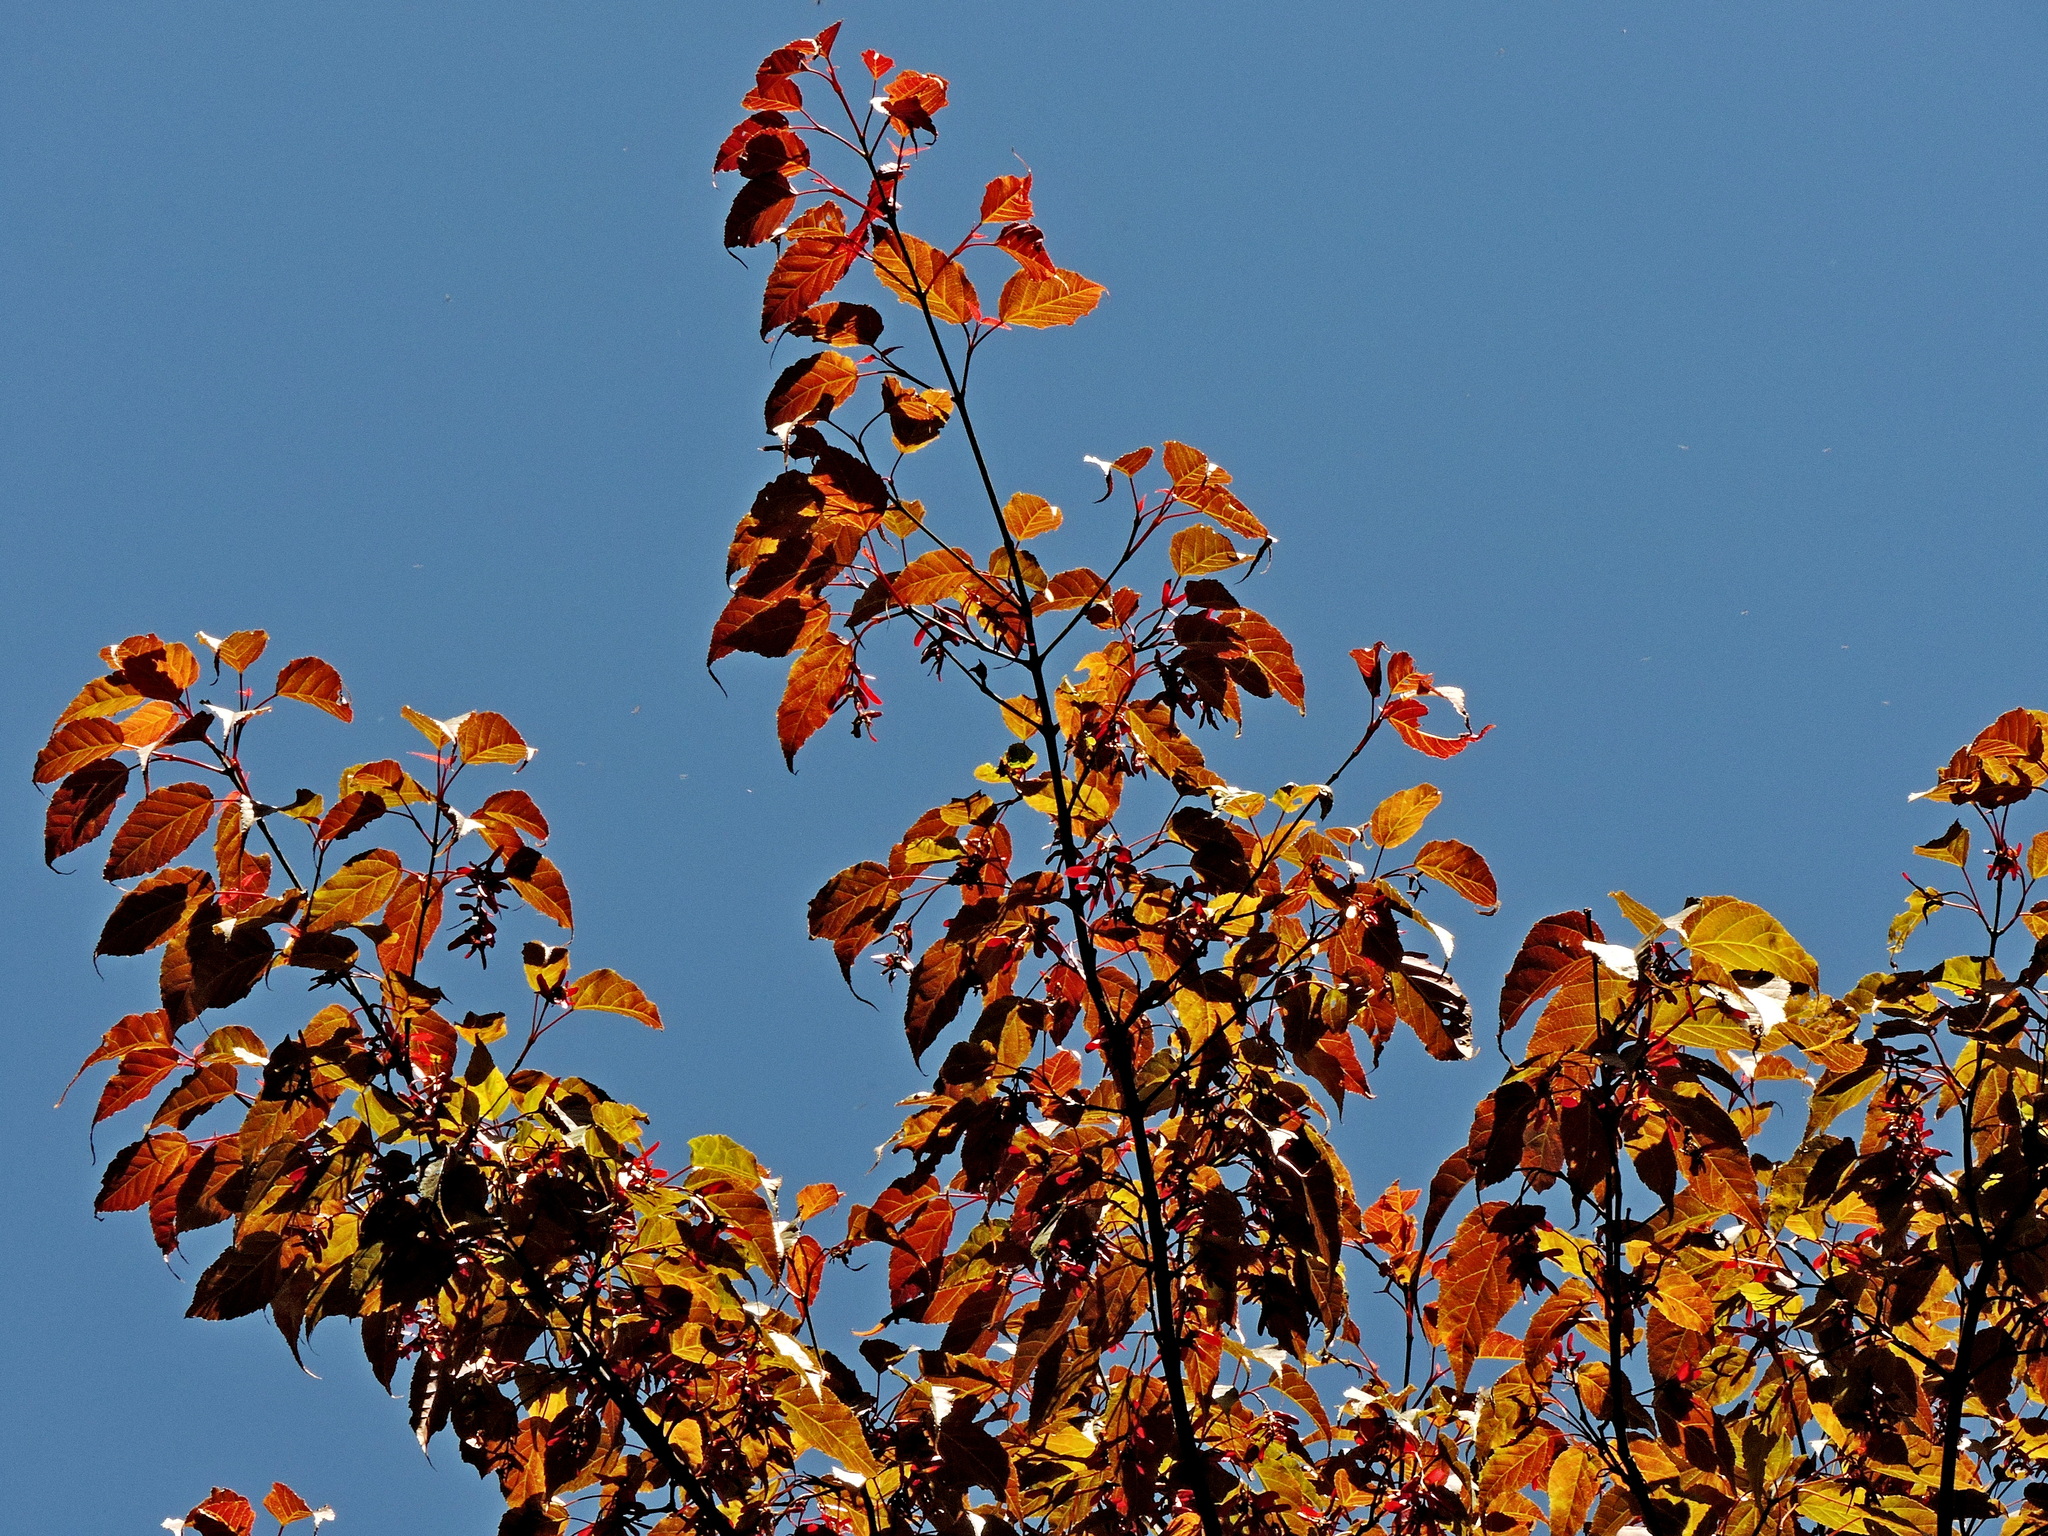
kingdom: Plantae
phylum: Tracheophyta
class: Magnoliopsida
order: Sapindales
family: Sapindaceae
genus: Acer
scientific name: Acer caudatifolium
